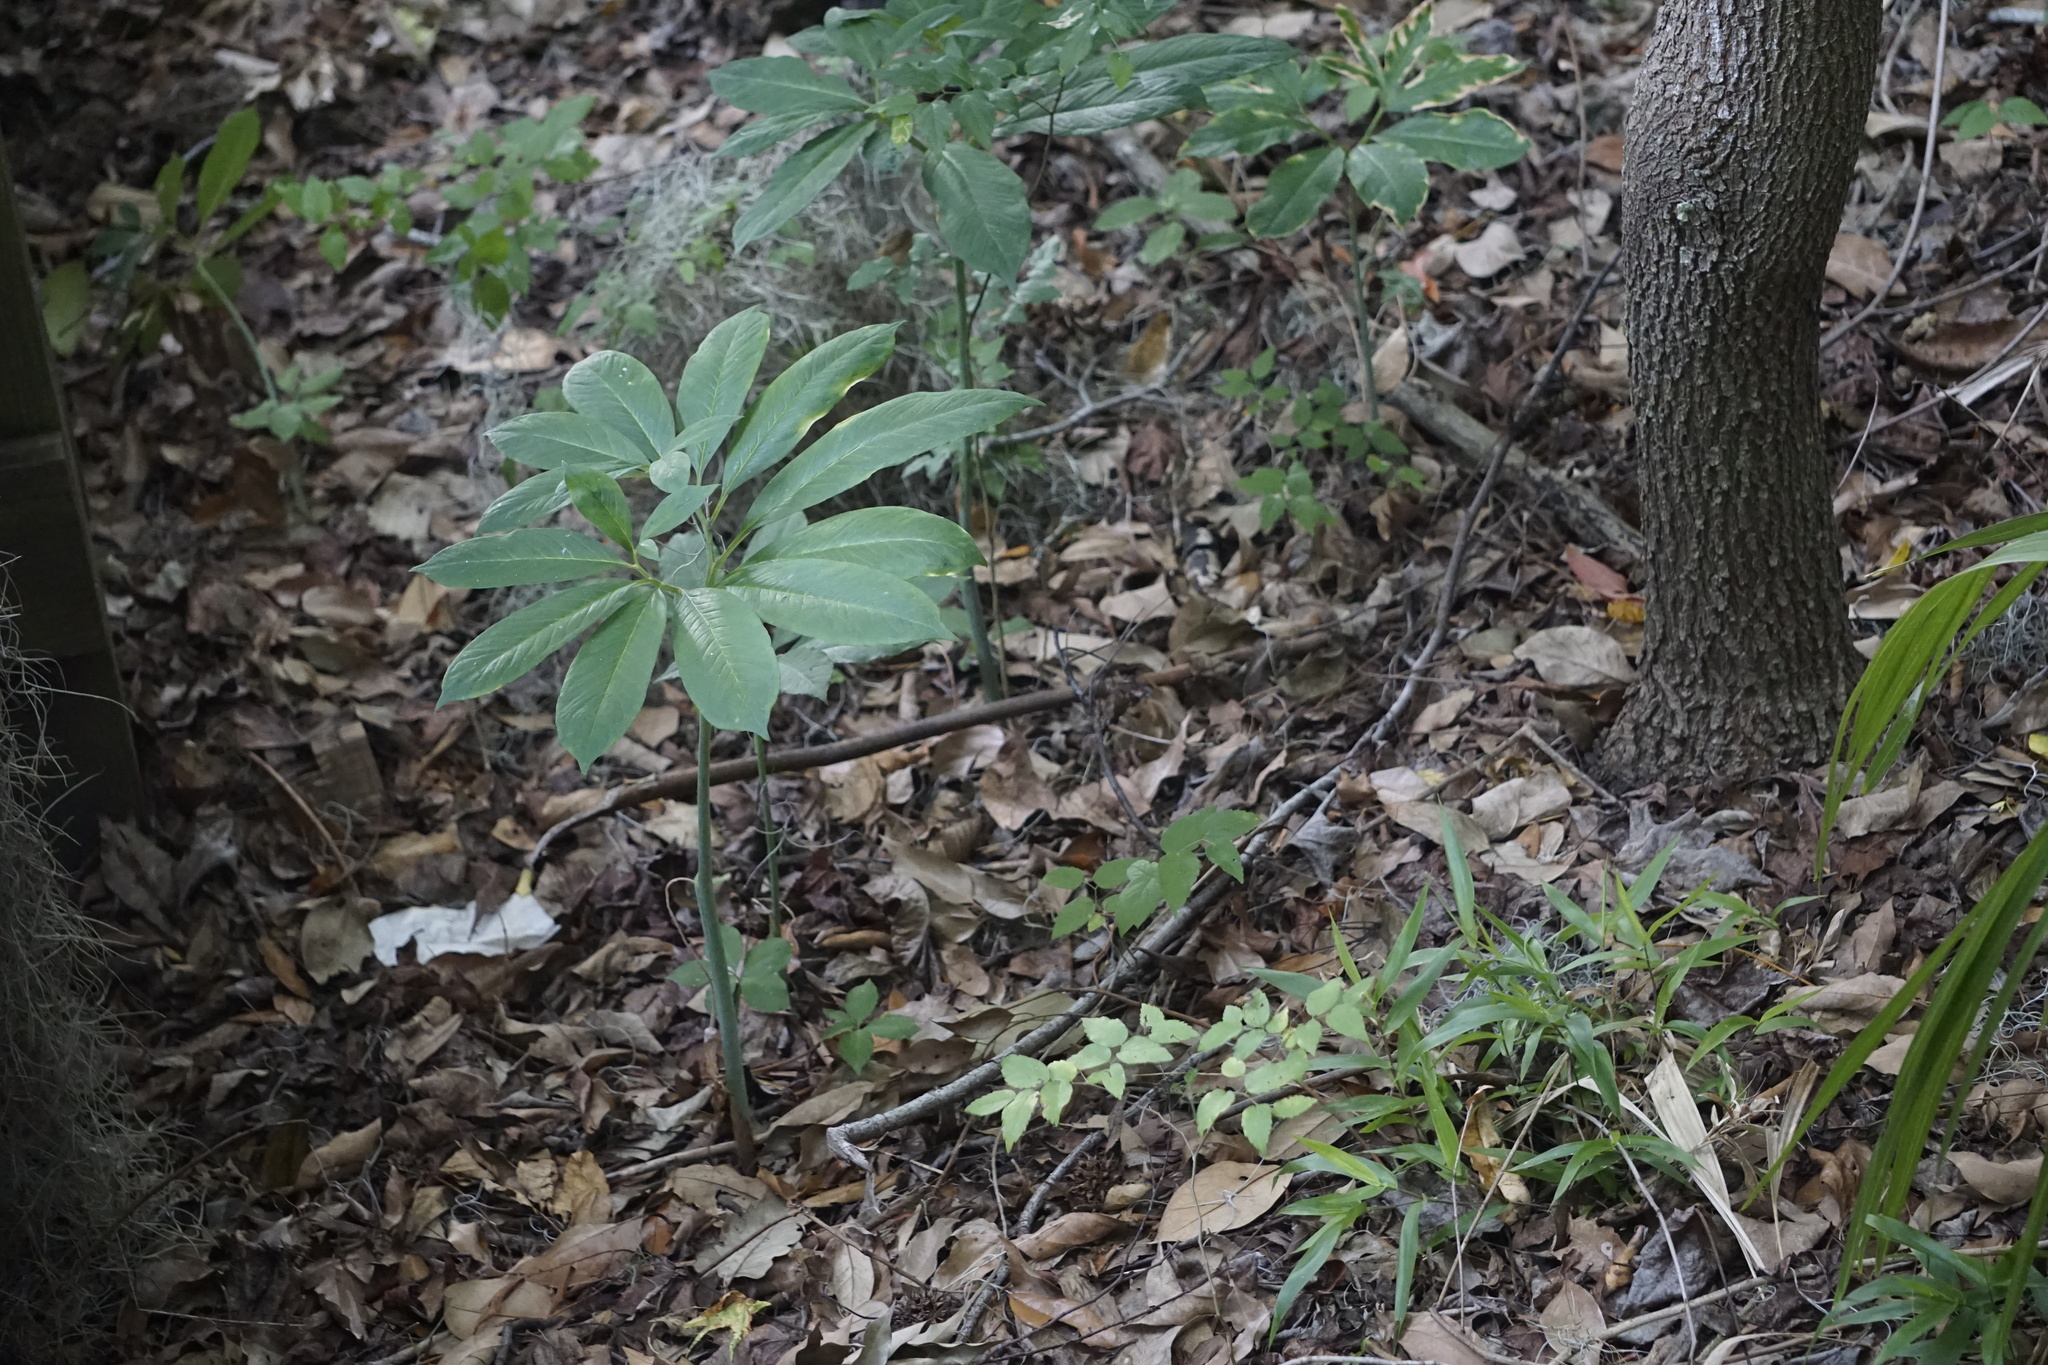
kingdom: Plantae
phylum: Tracheophyta
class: Liliopsida
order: Alismatales
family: Araceae
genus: Arisaema
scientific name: Arisaema dracontium
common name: Dragon-arum
